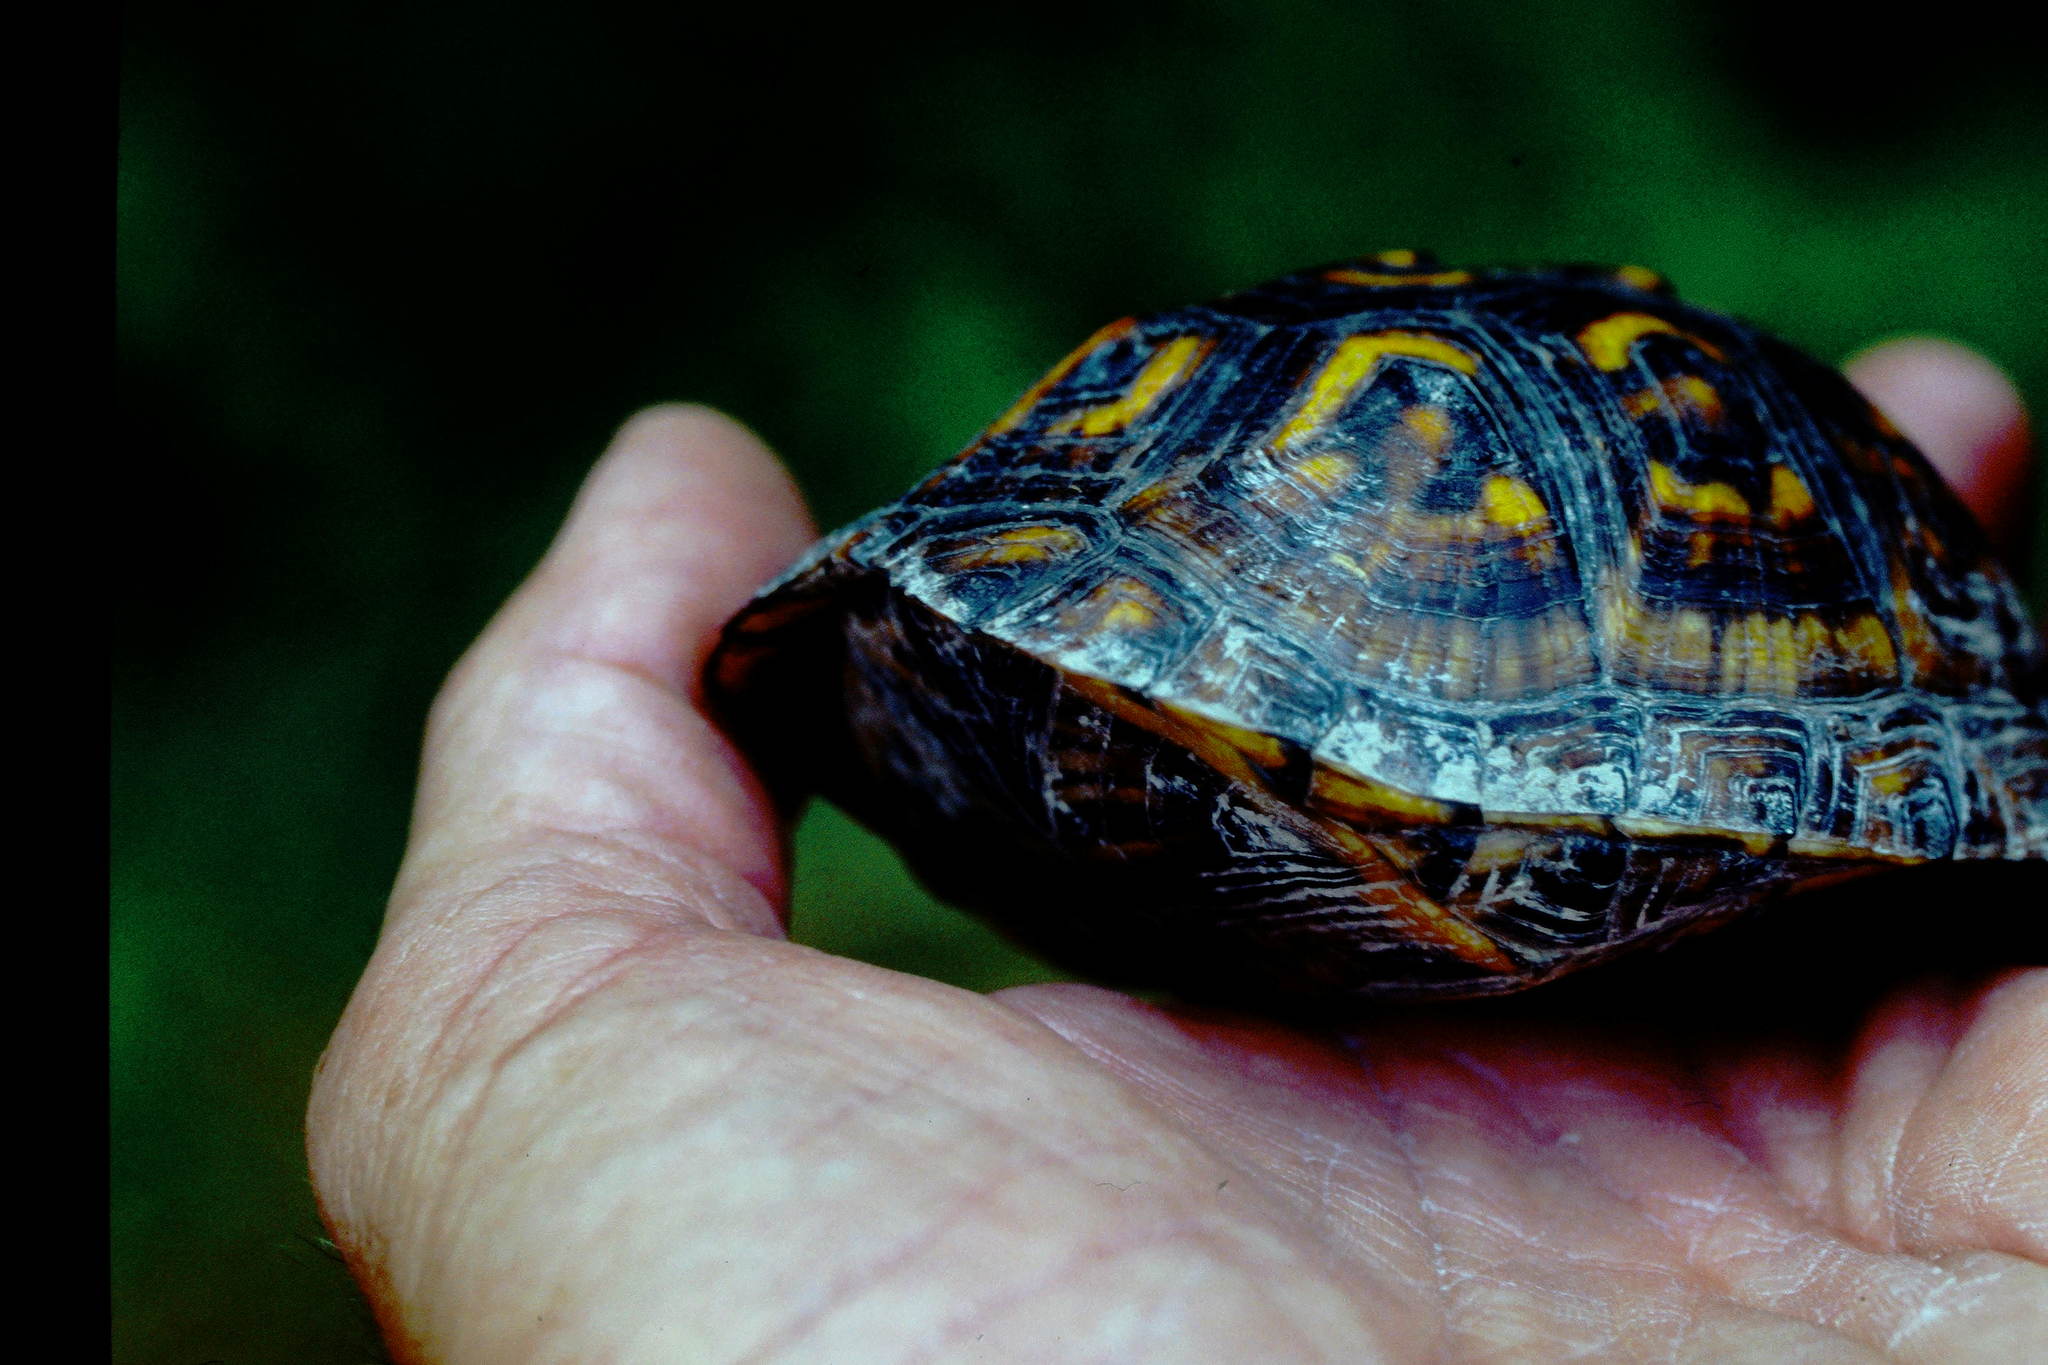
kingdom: Animalia
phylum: Chordata
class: Testudines
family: Emydidae
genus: Terrapene
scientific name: Terrapene carolina
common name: Common box turtle
